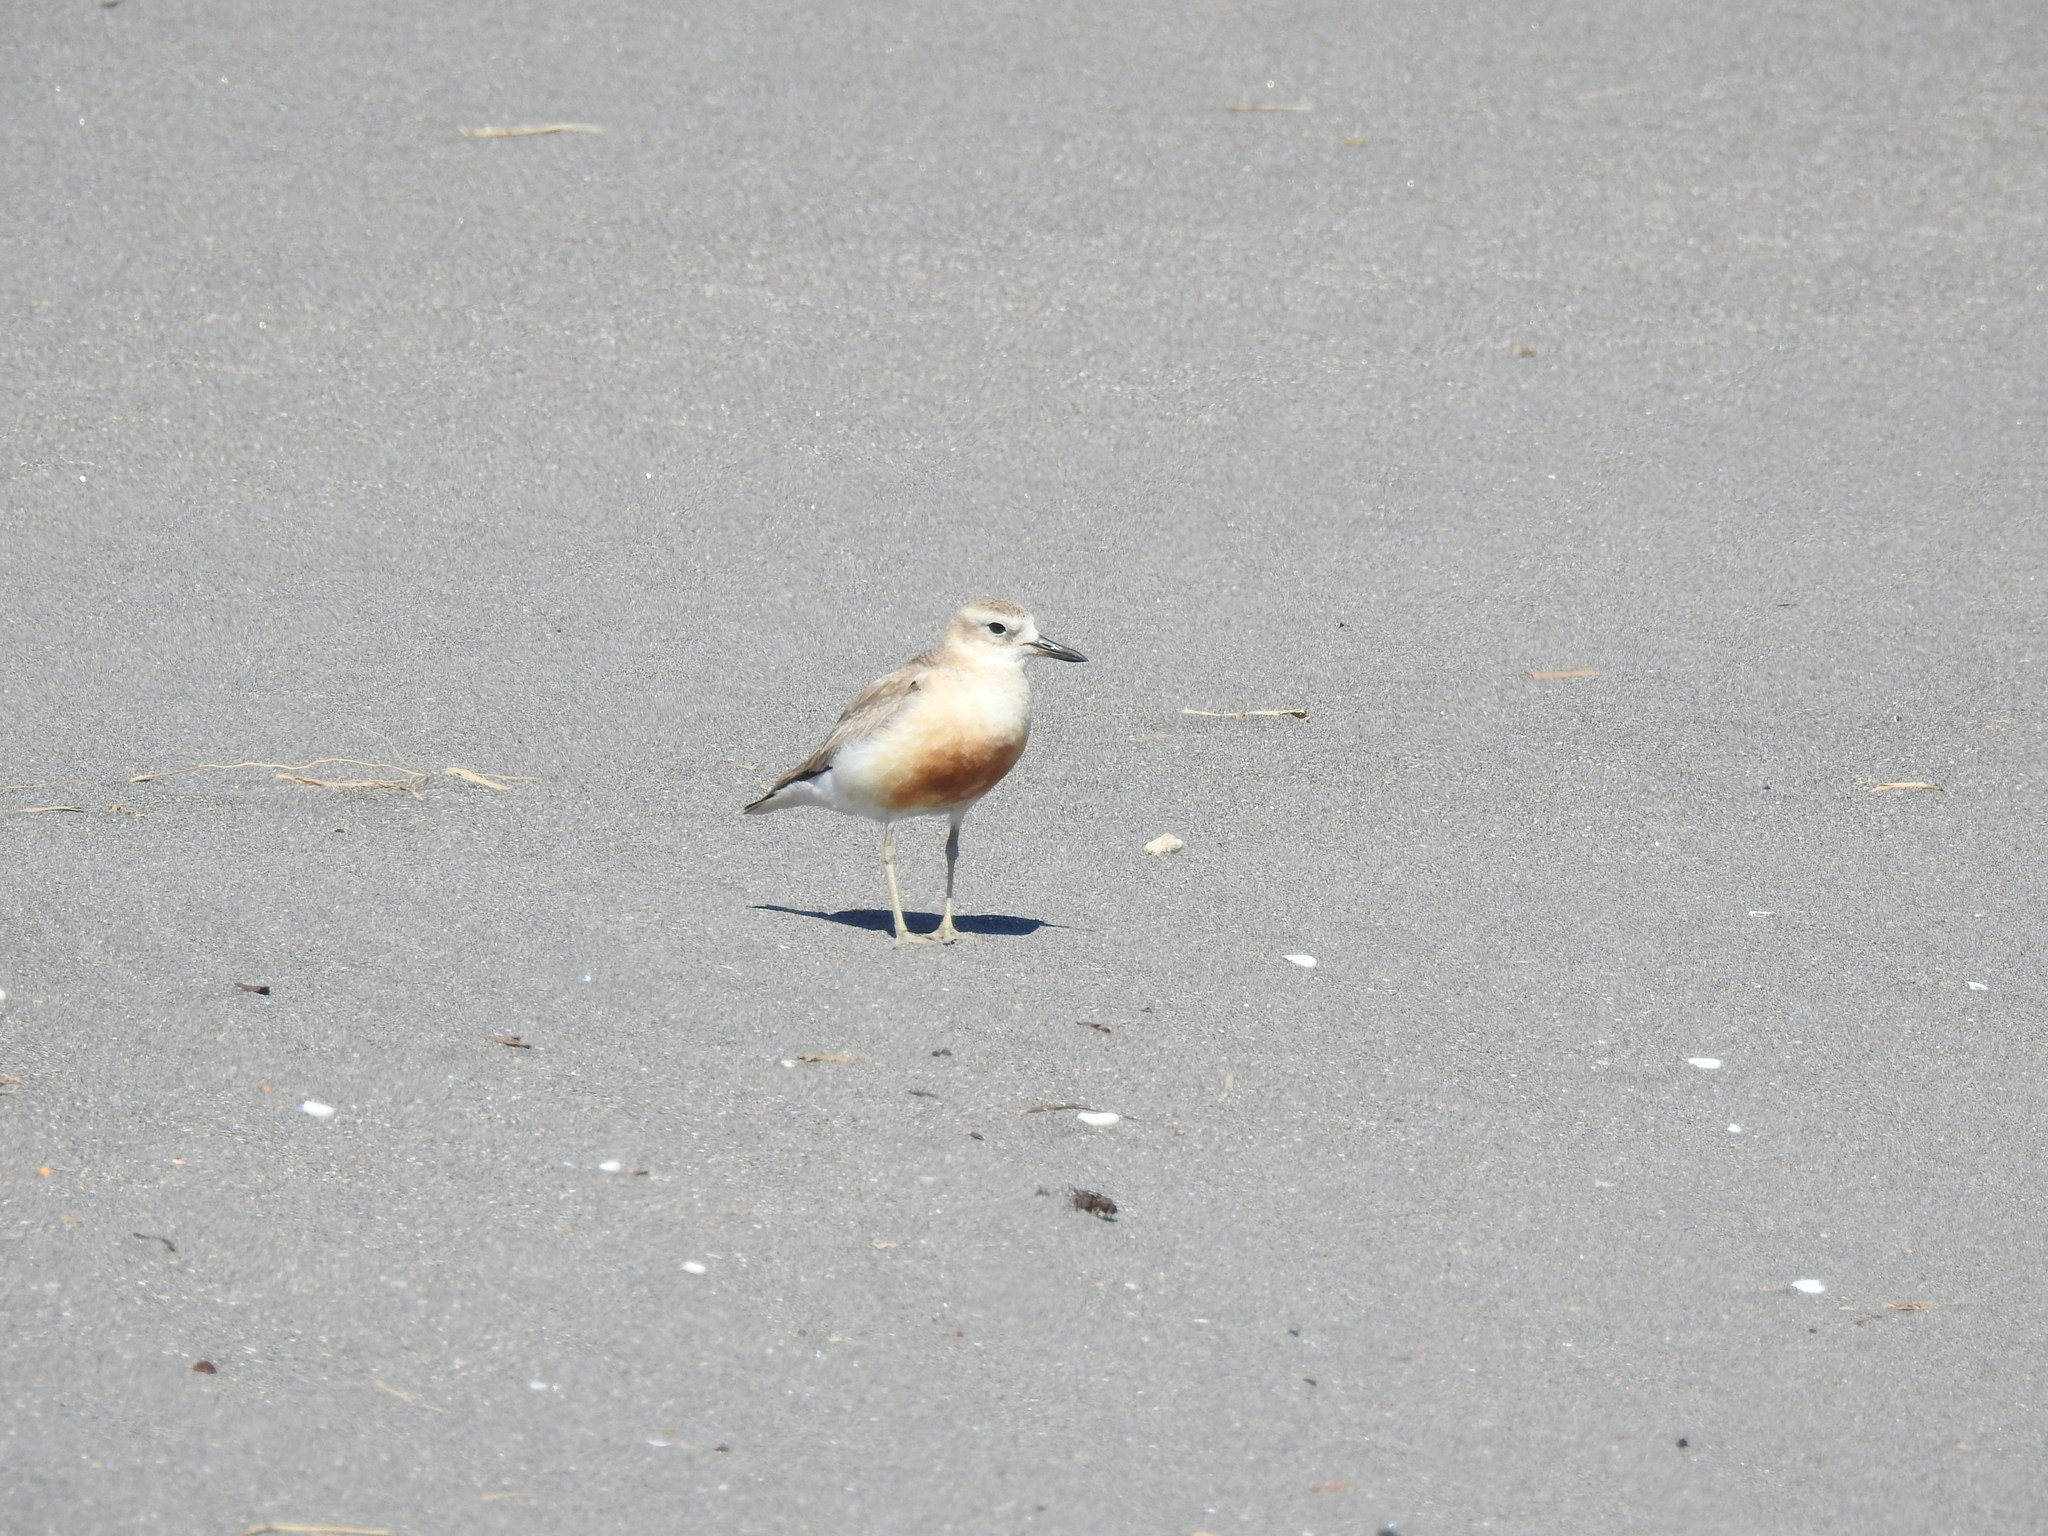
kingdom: Animalia
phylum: Chordata
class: Aves
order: Charadriiformes
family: Charadriidae
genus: Anarhynchus
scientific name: Anarhynchus
